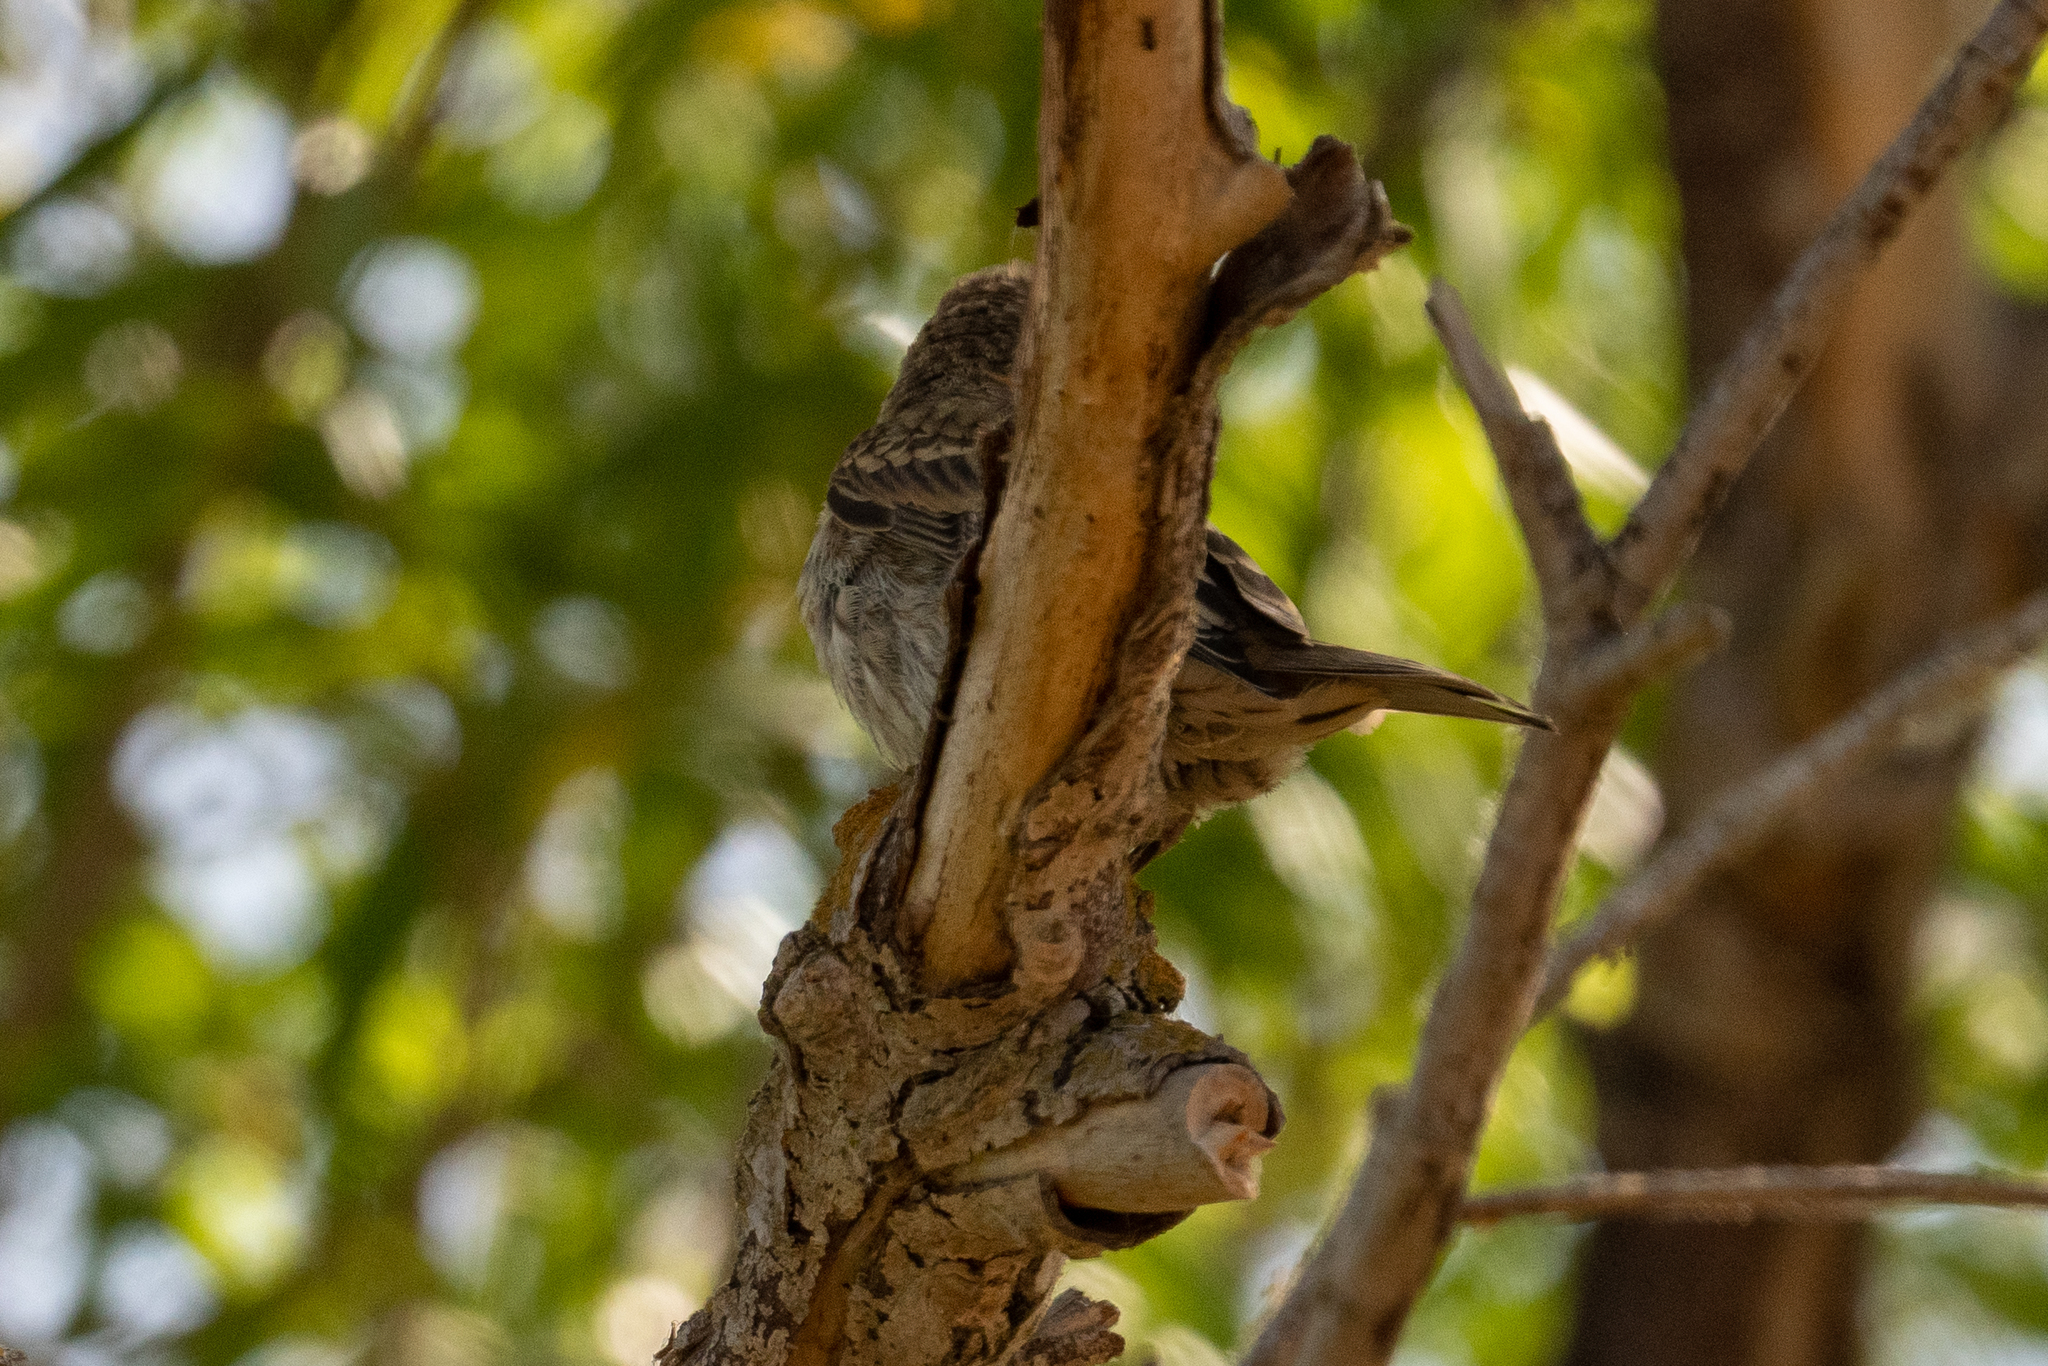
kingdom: Animalia
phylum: Chordata
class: Aves
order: Passeriformes
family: Fringillidae
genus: Haemorhous
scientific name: Haemorhous mexicanus
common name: House finch
